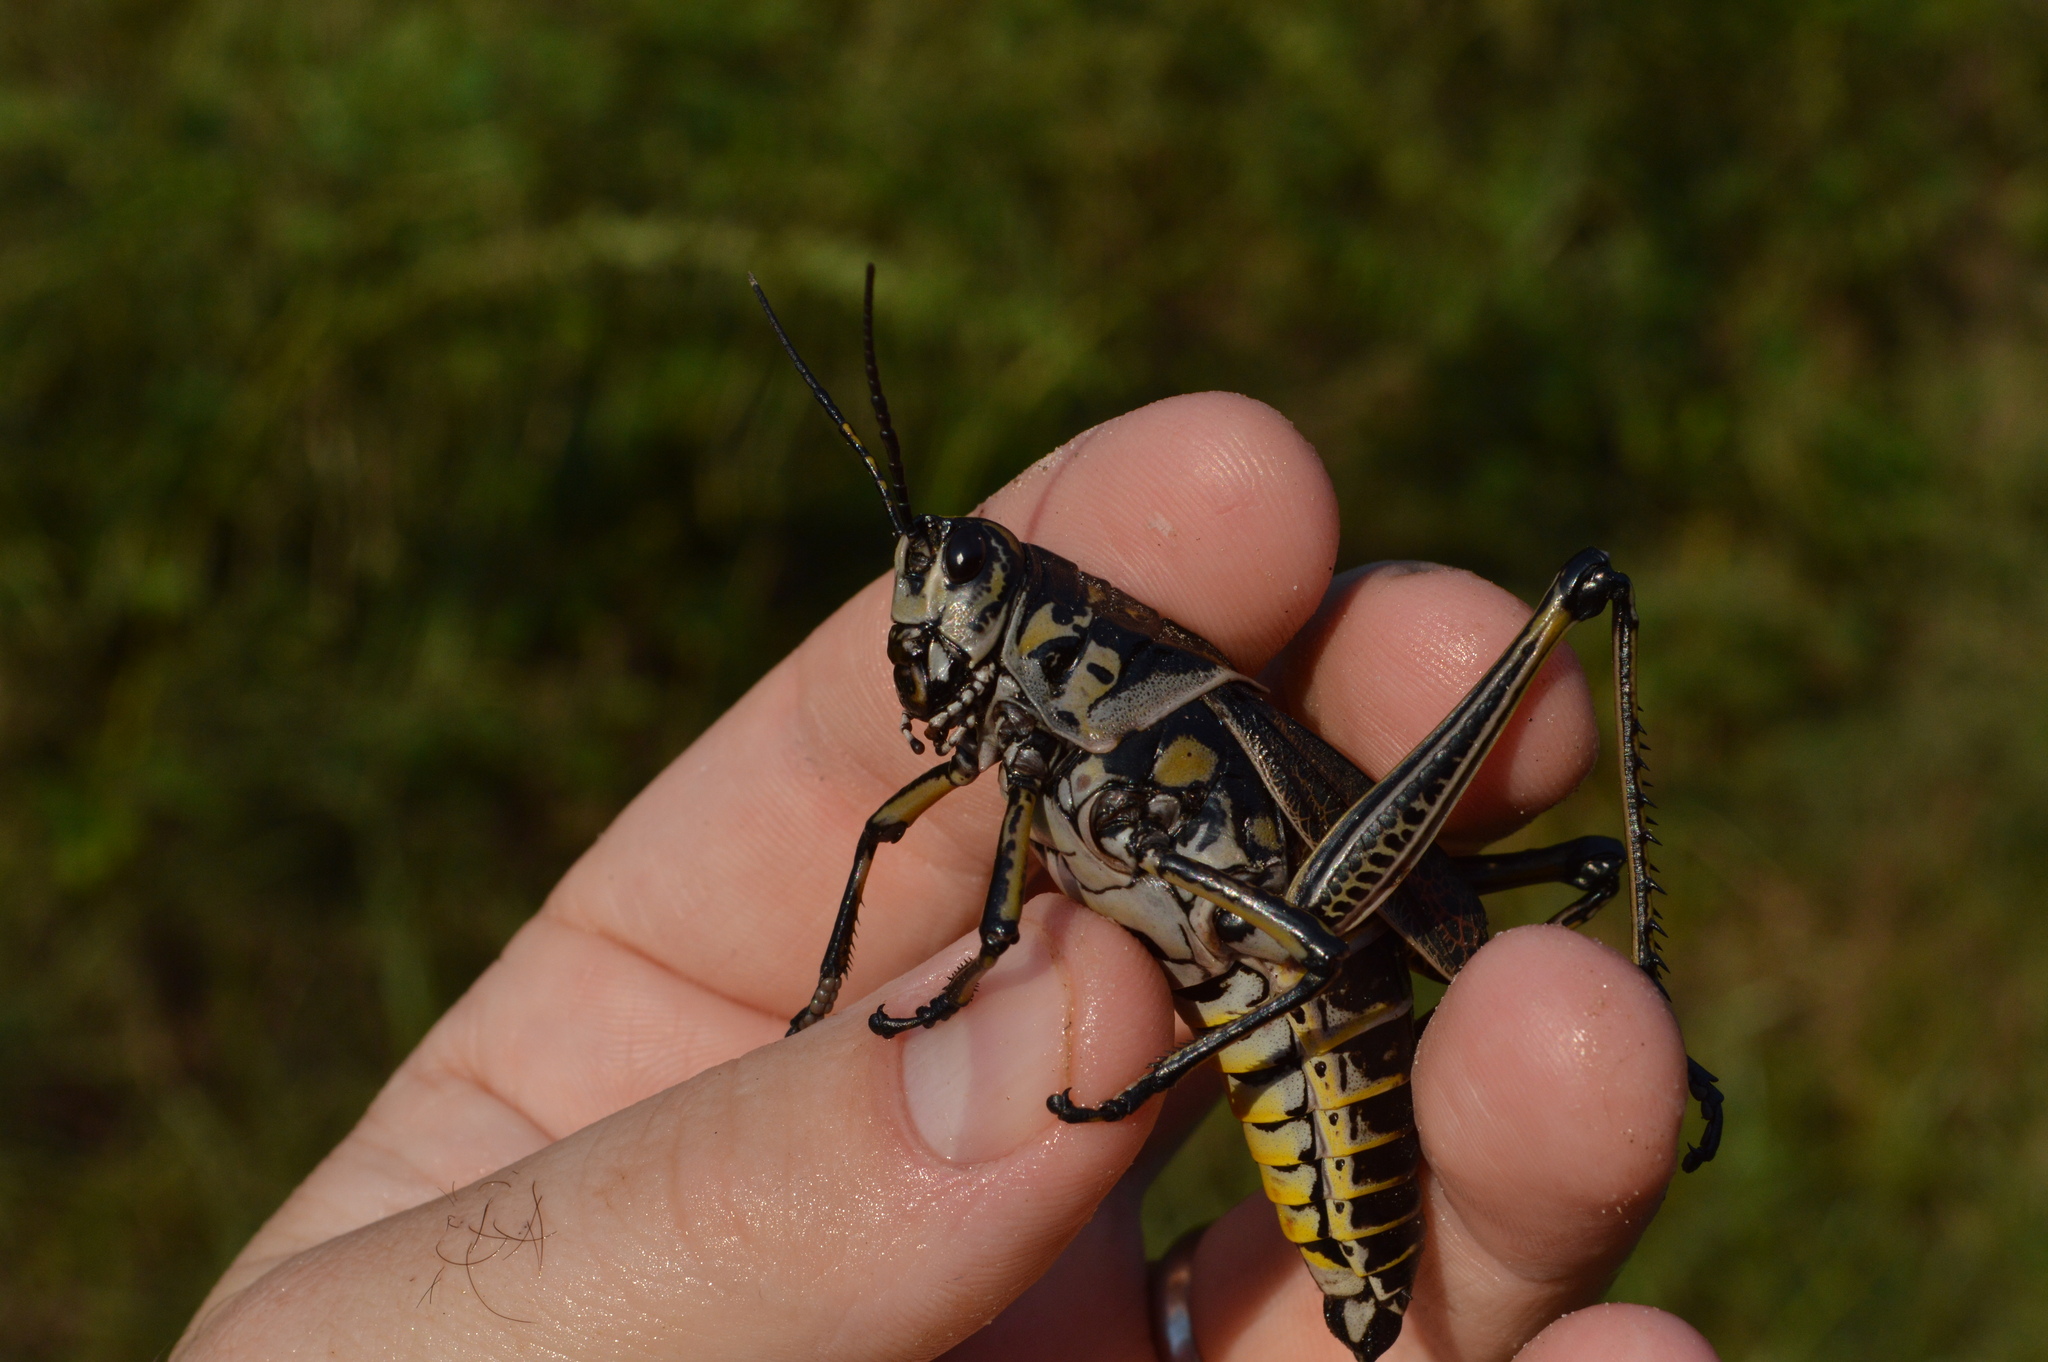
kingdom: Animalia
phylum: Arthropoda
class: Insecta
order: Orthoptera
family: Romaleidae
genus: Romalea
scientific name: Romalea microptera
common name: Eastern lubber grasshopper
